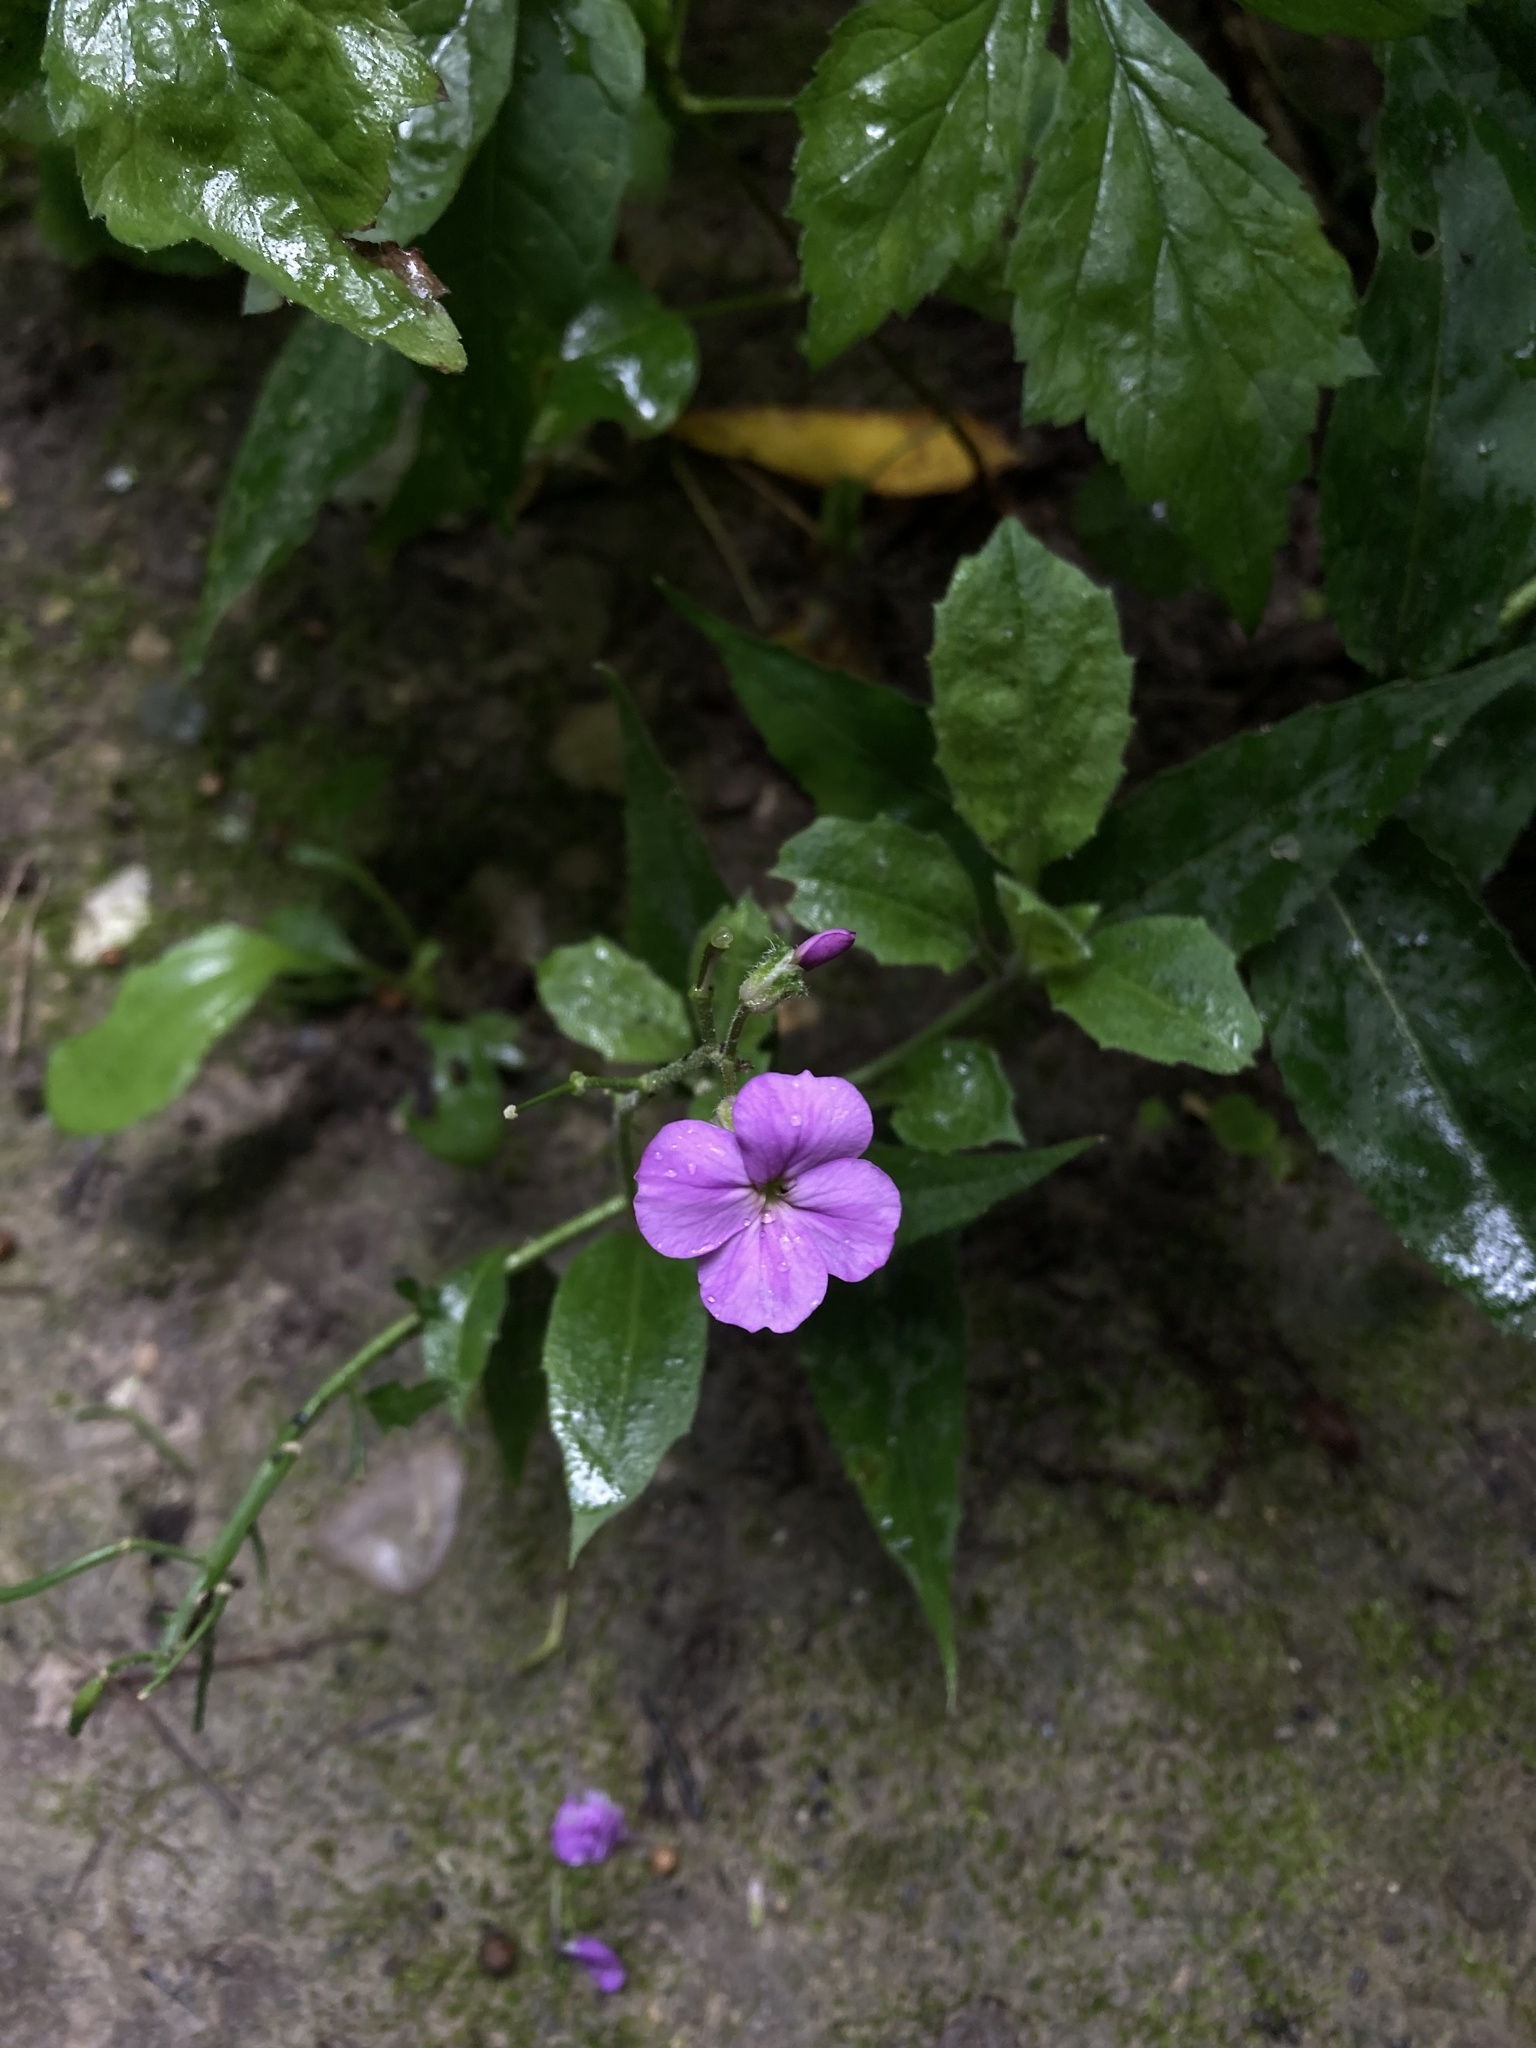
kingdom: Plantae
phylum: Tracheophyta
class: Magnoliopsida
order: Brassicales
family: Brassicaceae
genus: Hesperis
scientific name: Hesperis matronalis
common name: Dame's-violet
